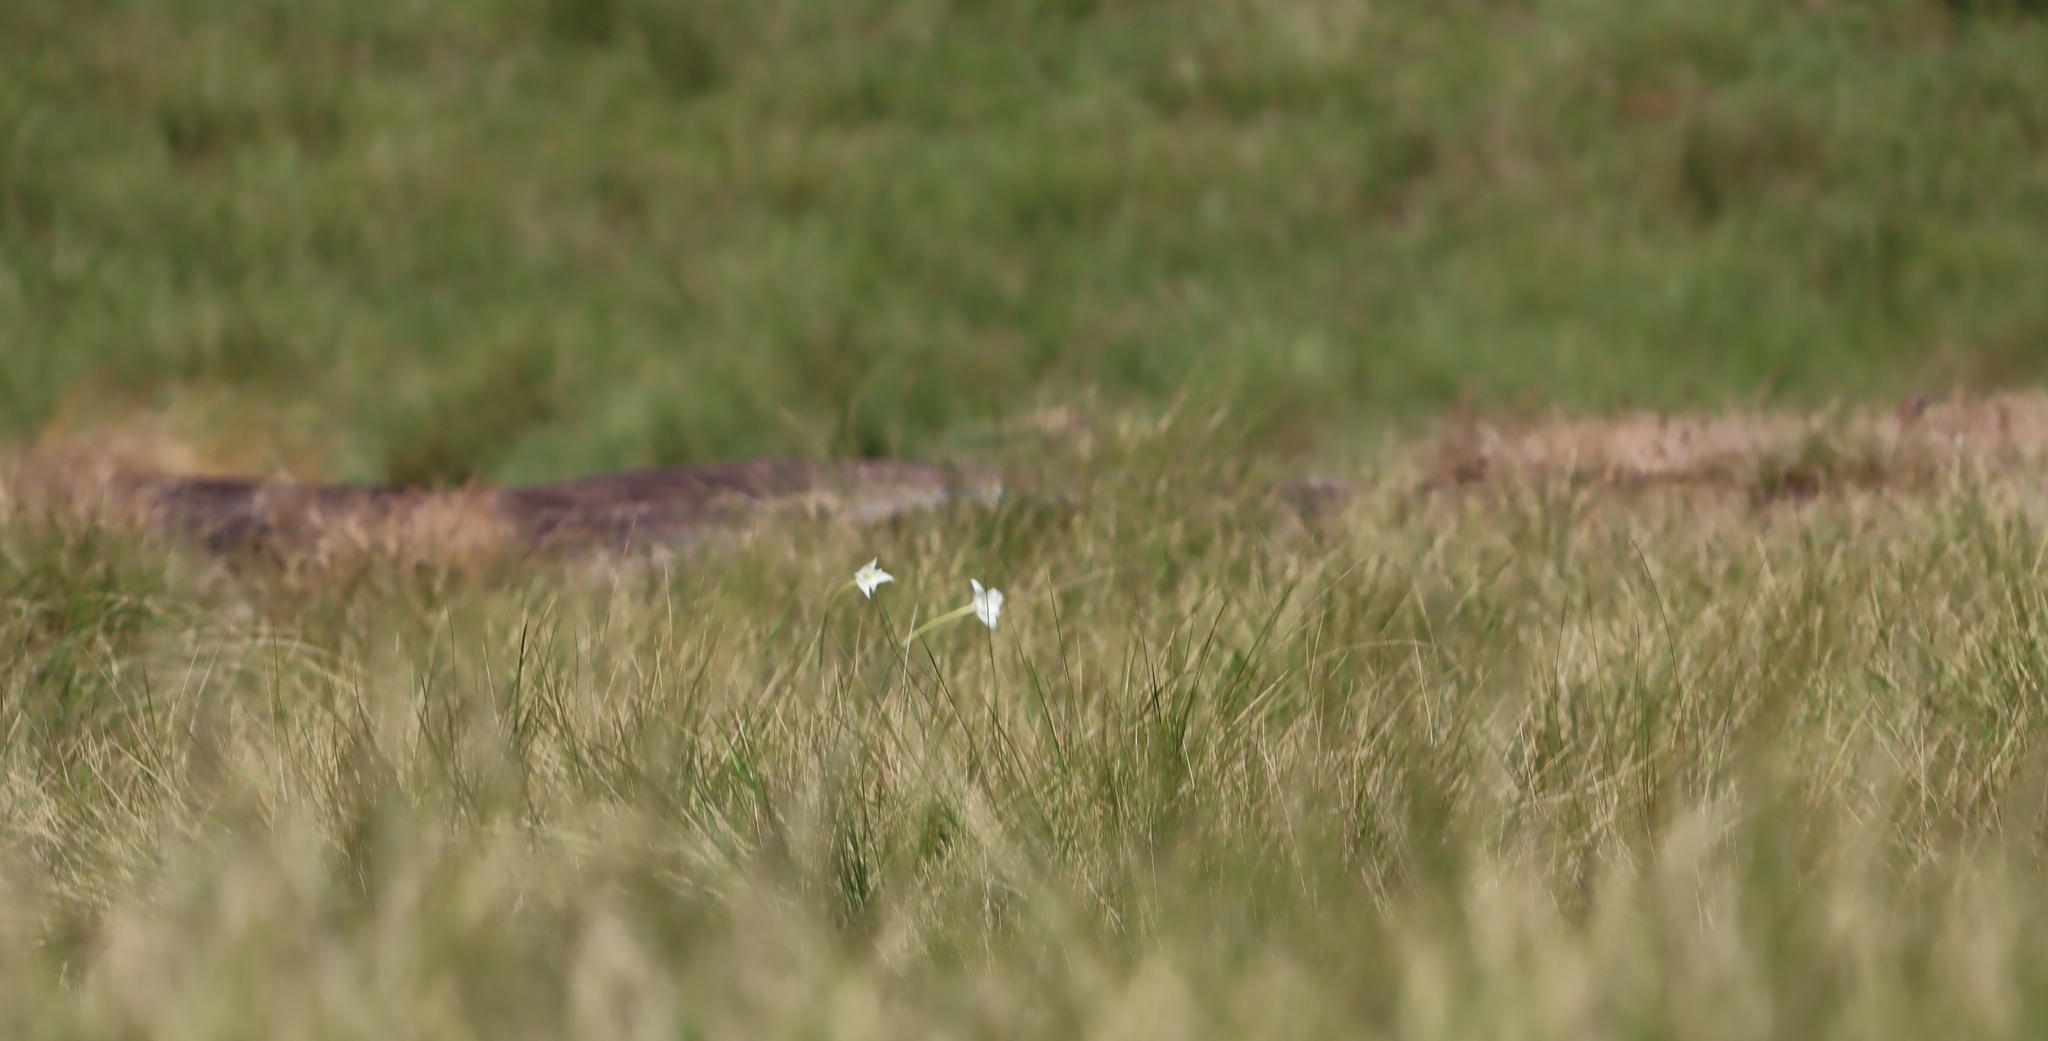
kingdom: Plantae
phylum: Tracheophyta
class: Liliopsida
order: Asparagales
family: Iridaceae
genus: Gladiolus
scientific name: Gladiolus longicollis
